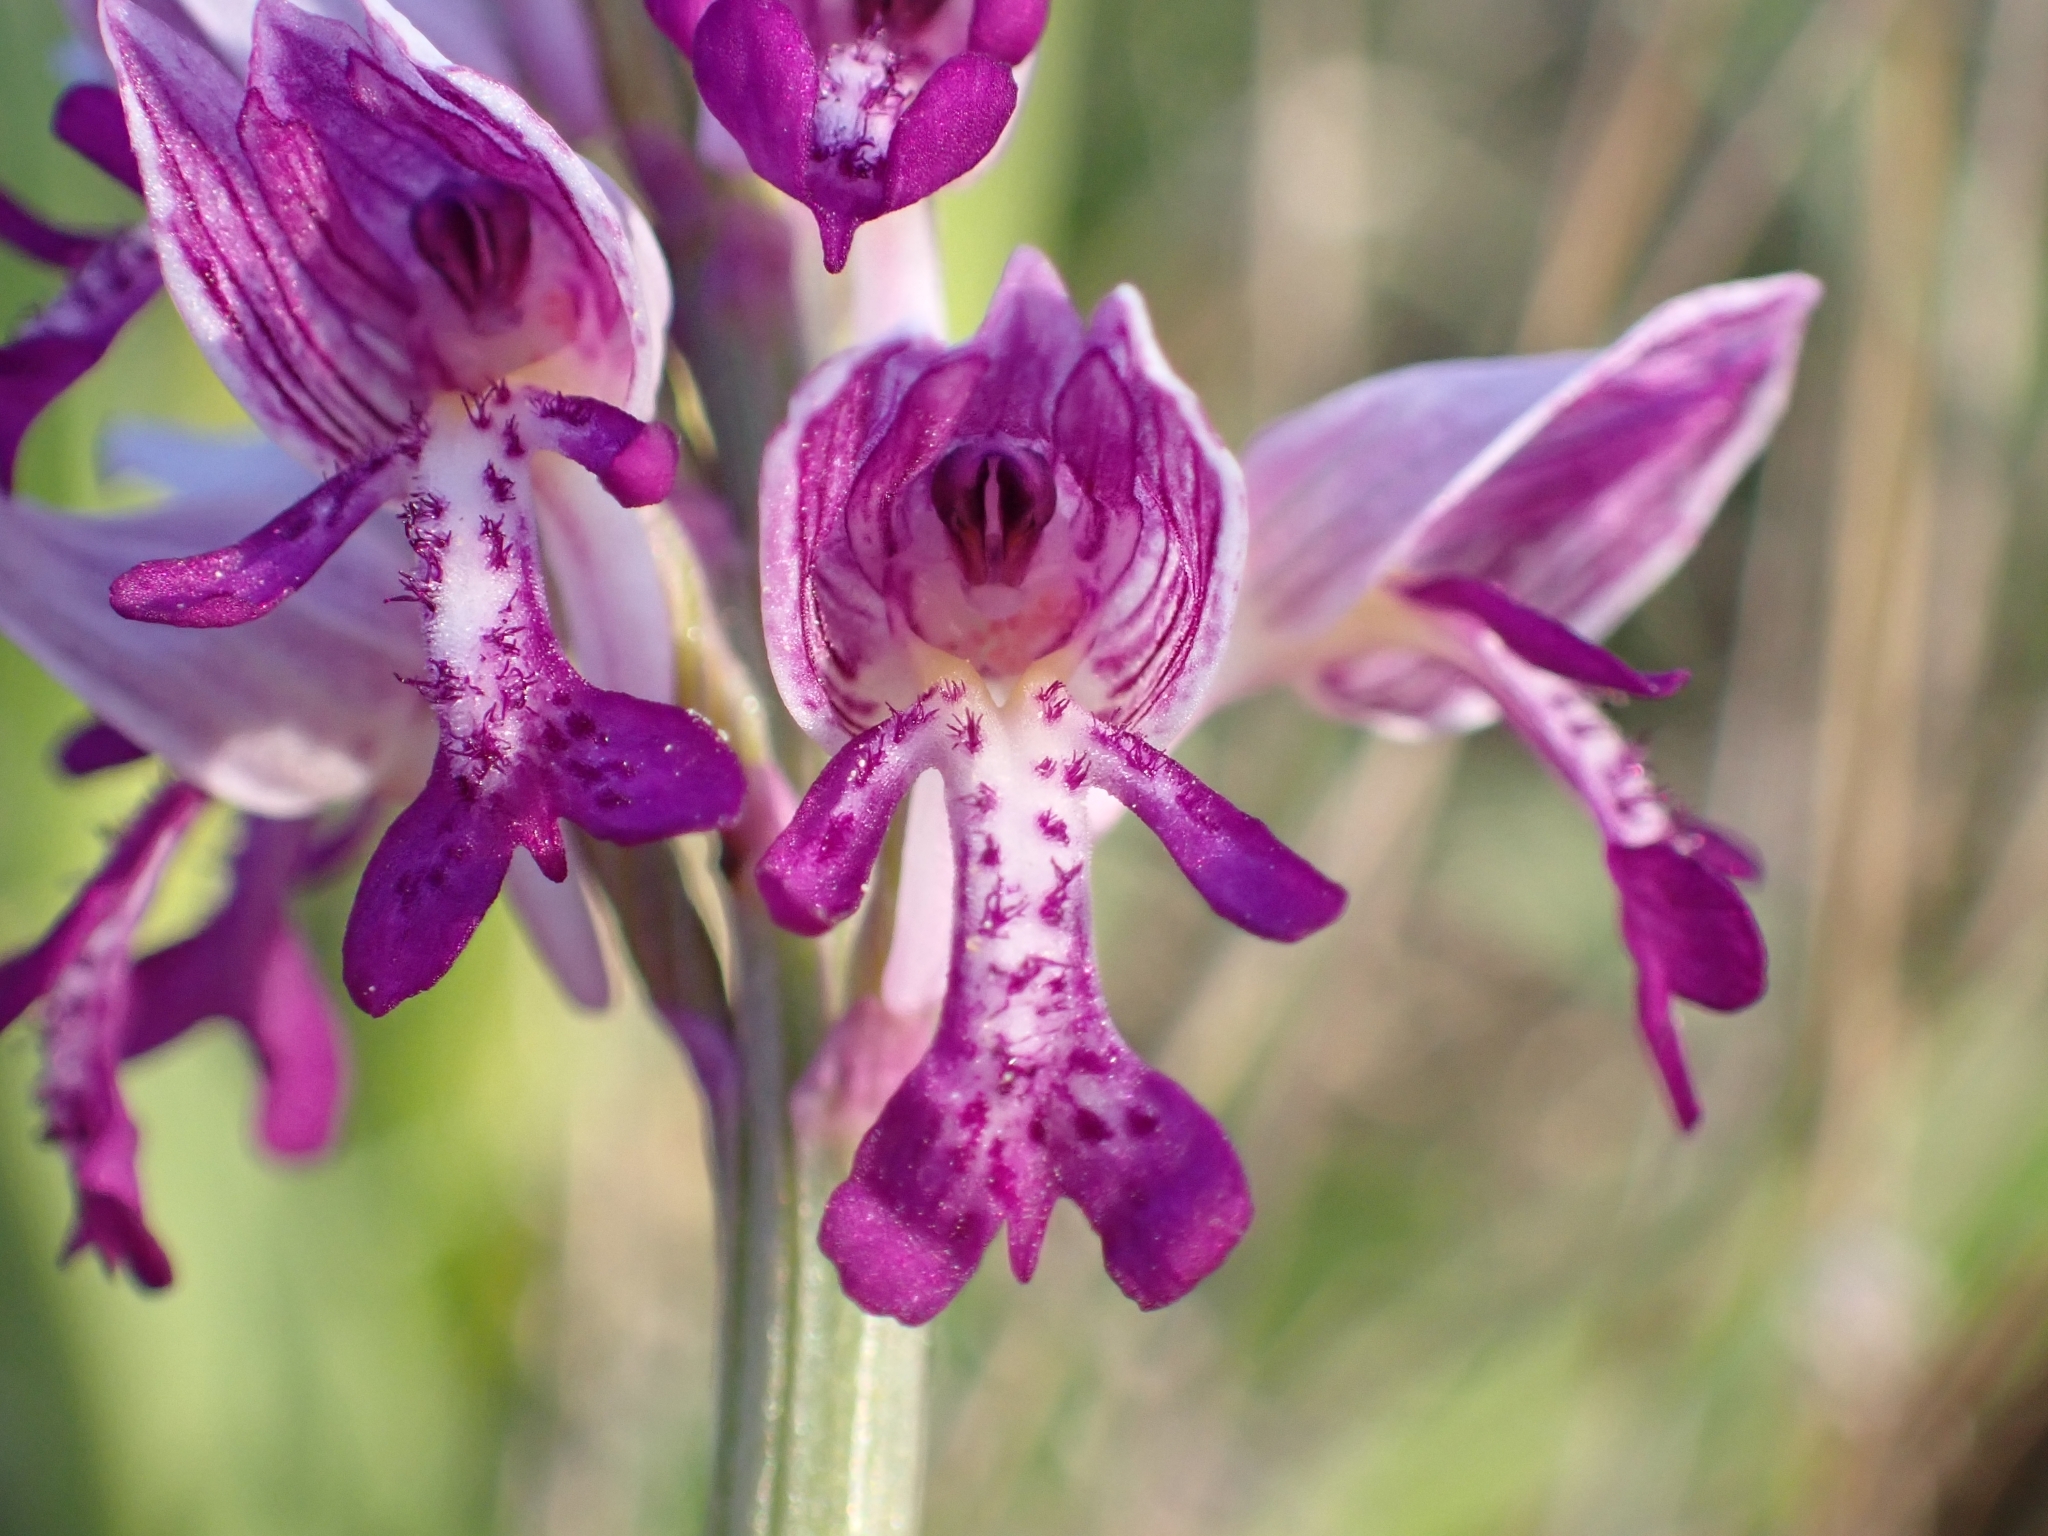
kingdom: Plantae
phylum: Tracheophyta
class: Liliopsida
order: Asparagales
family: Orchidaceae
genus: Orchis
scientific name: Orchis militaris
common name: Military orchid
